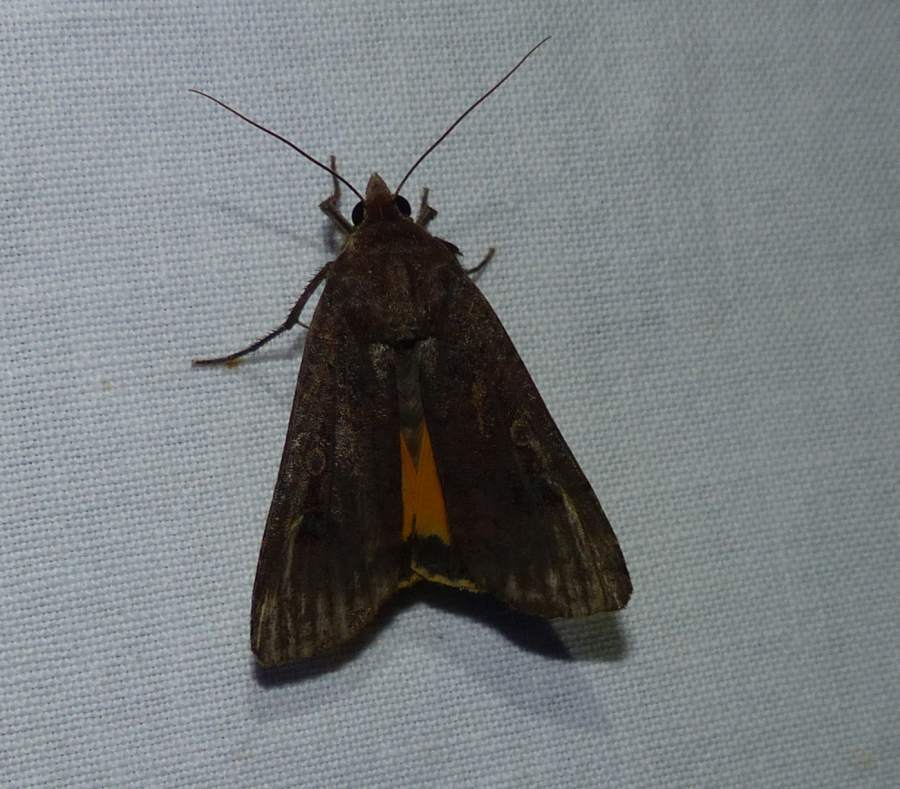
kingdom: Animalia
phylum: Arthropoda
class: Insecta
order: Lepidoptera
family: Noctuidae
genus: Noctua
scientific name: Noctua pronuba
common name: Large yellow underwing
